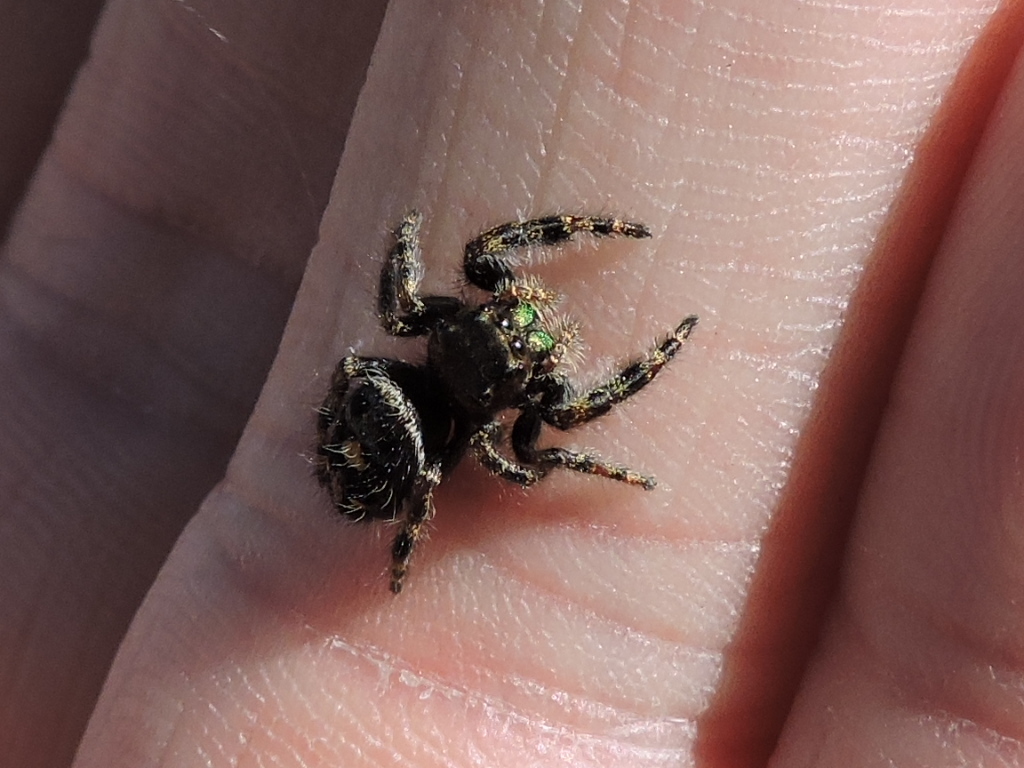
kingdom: Animalia
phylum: Arthropoda
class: Arachnida
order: Araneae
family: Salticidae
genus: Phidippus
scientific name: Phidippus audax
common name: Bold jumper
